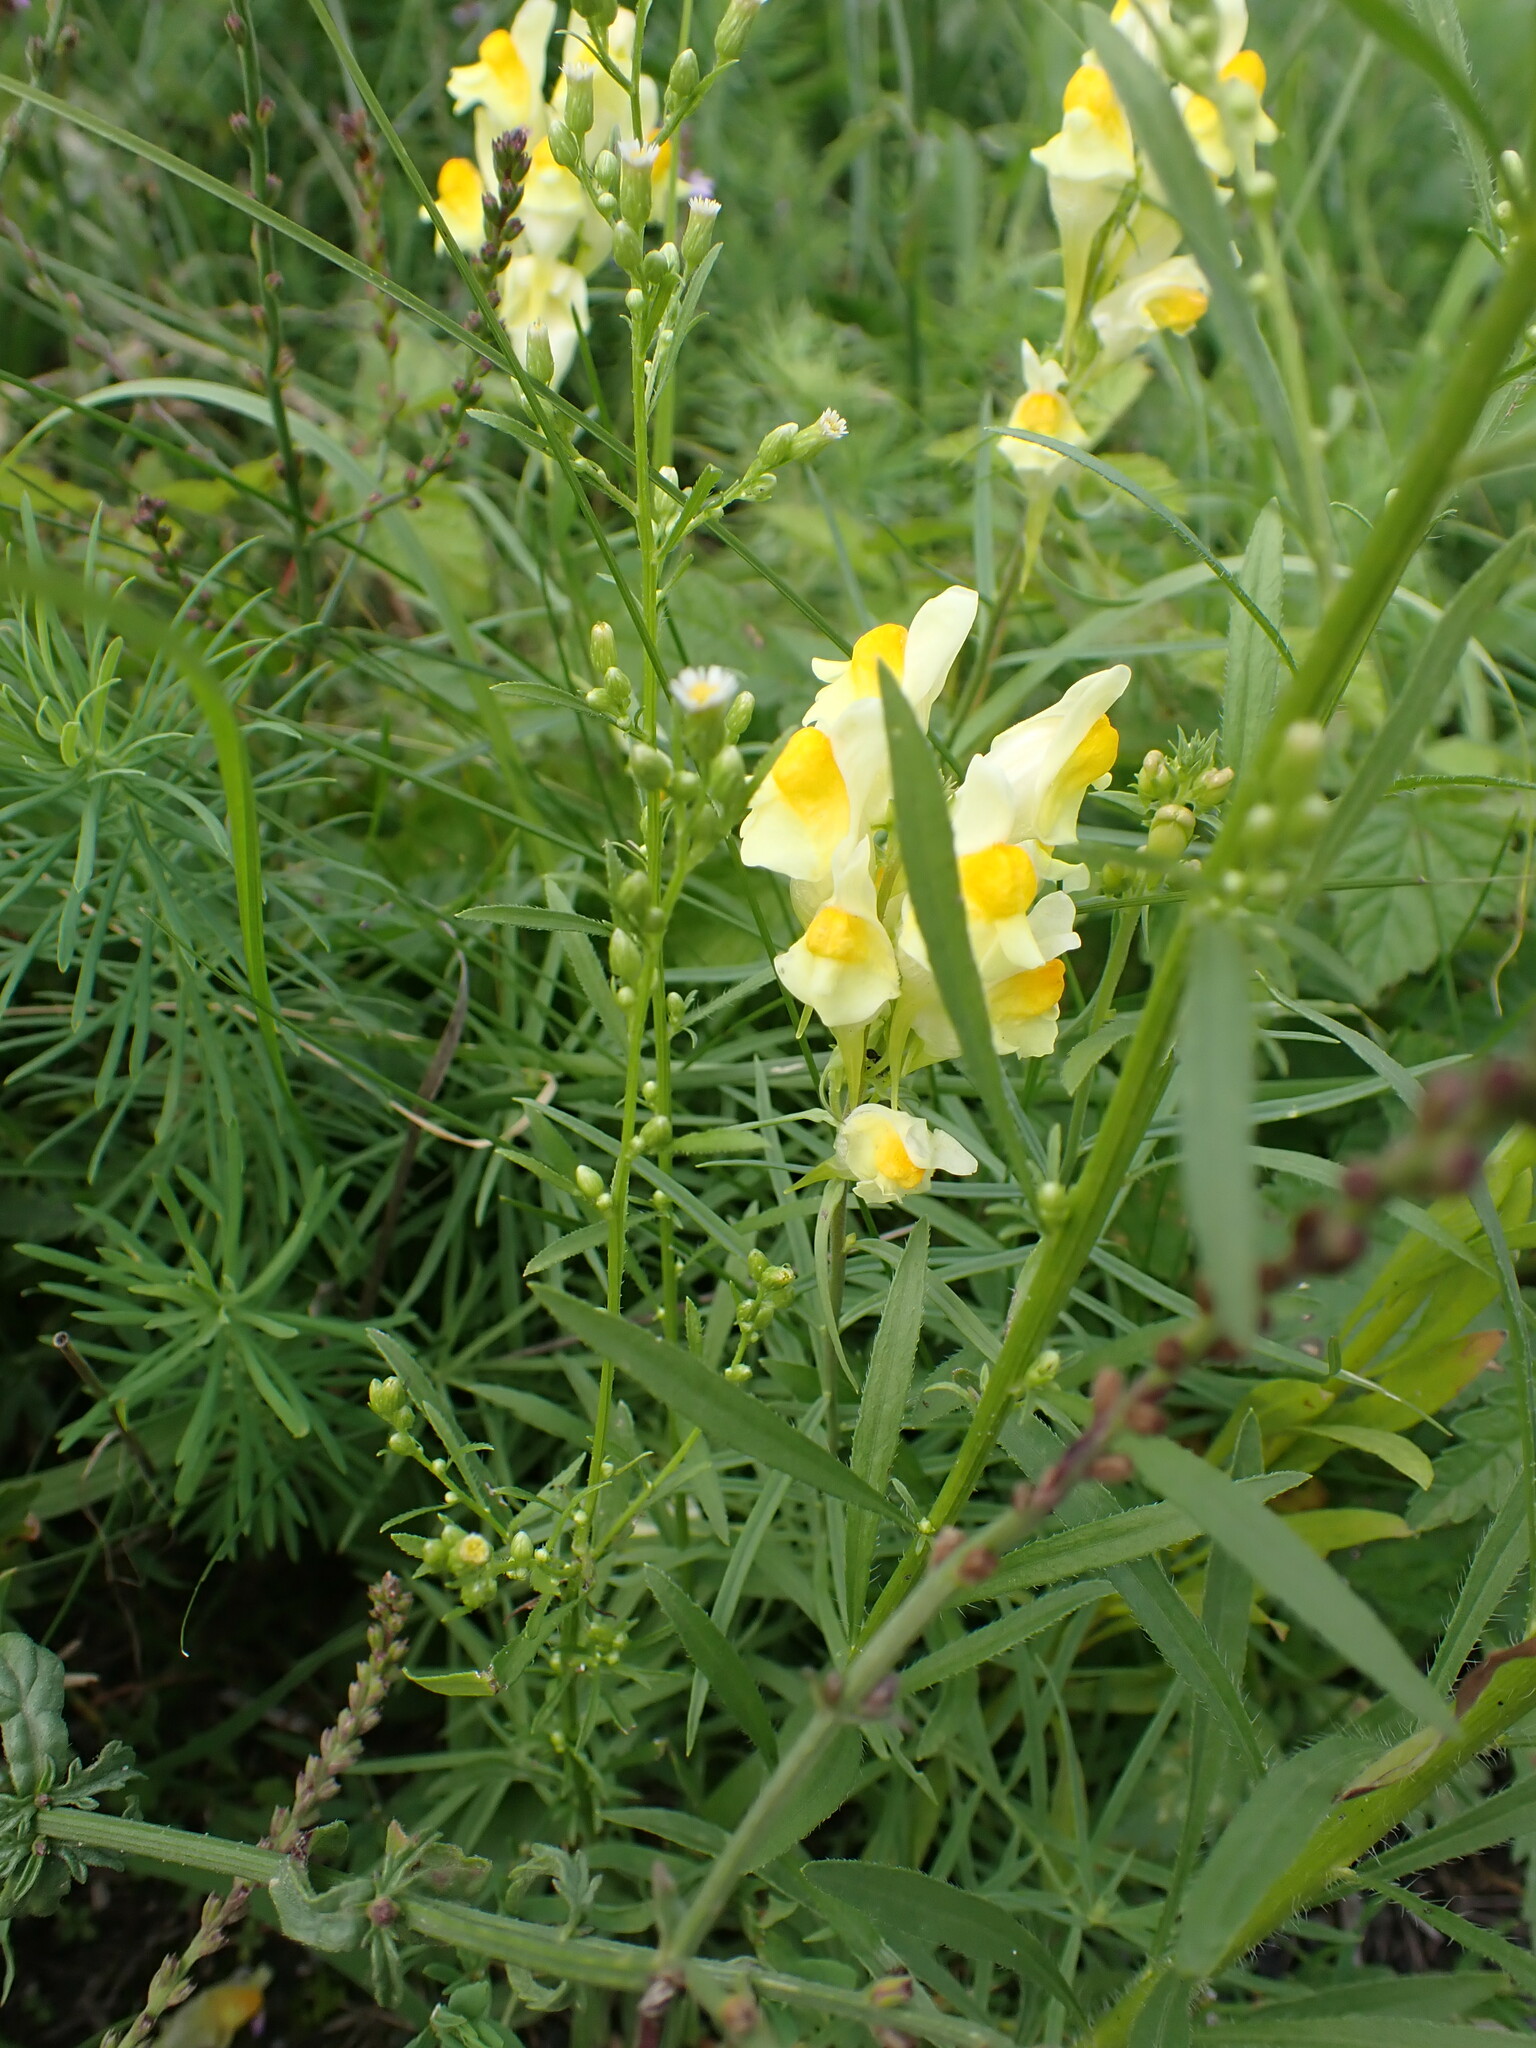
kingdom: Plantae
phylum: Tracheophyta
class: Magnoliopsida
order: Lamiales
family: Plantaginaceae
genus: Linaria
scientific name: Linaria vulgaris
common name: Butter and eggs
